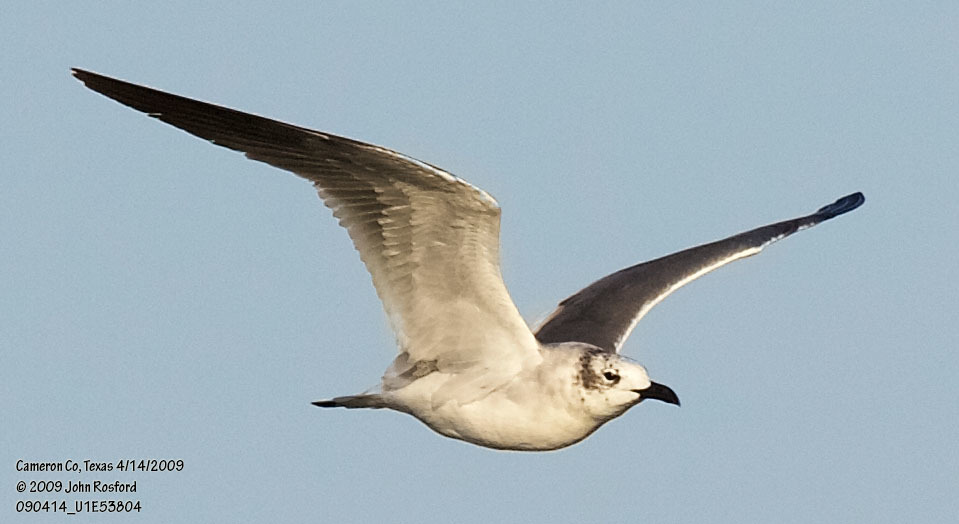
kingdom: Animalia
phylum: Chordata
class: Aves
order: Charadriiformes
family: Laridae
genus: Leucophaeus
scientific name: Leucophaeus atricilla
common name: Laughing gull
